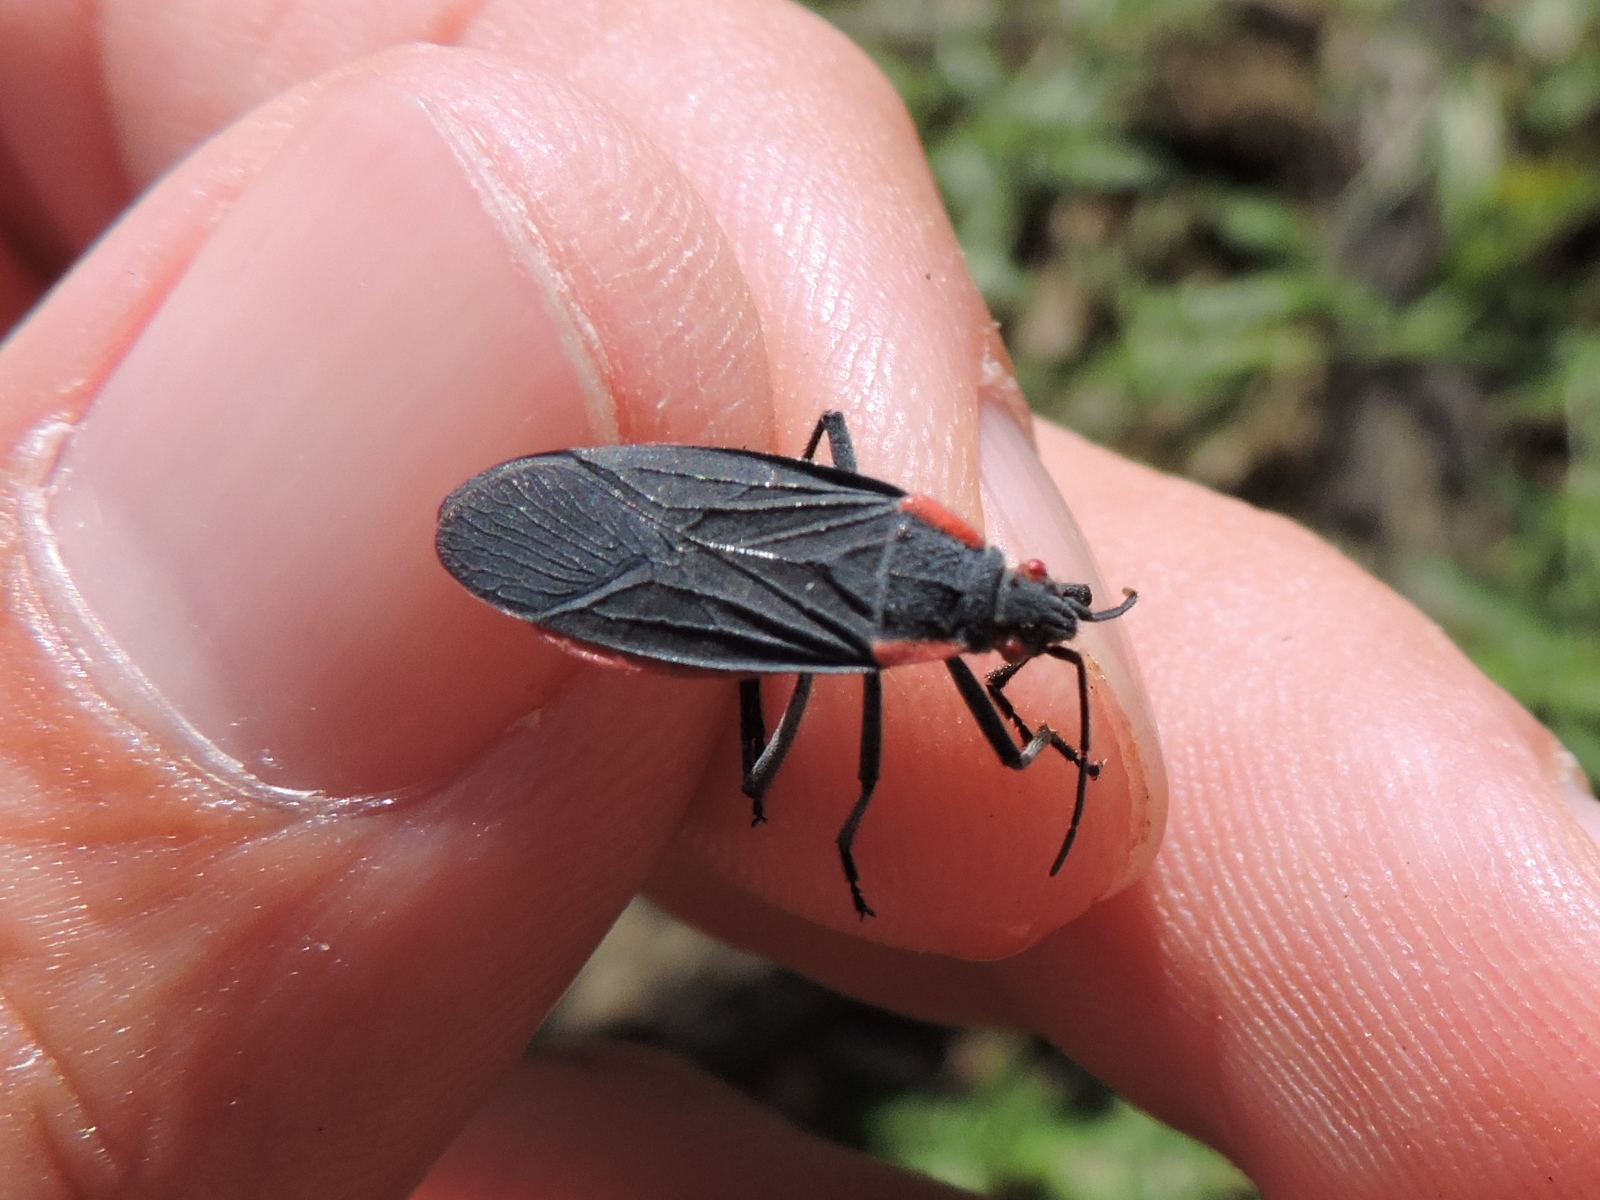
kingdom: Animalia
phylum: Arthropoda
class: Insecta
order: Hemiptera
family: Rhopalidae
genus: Jadera
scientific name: Jadera haematoloma
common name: Red-shouldered bug
